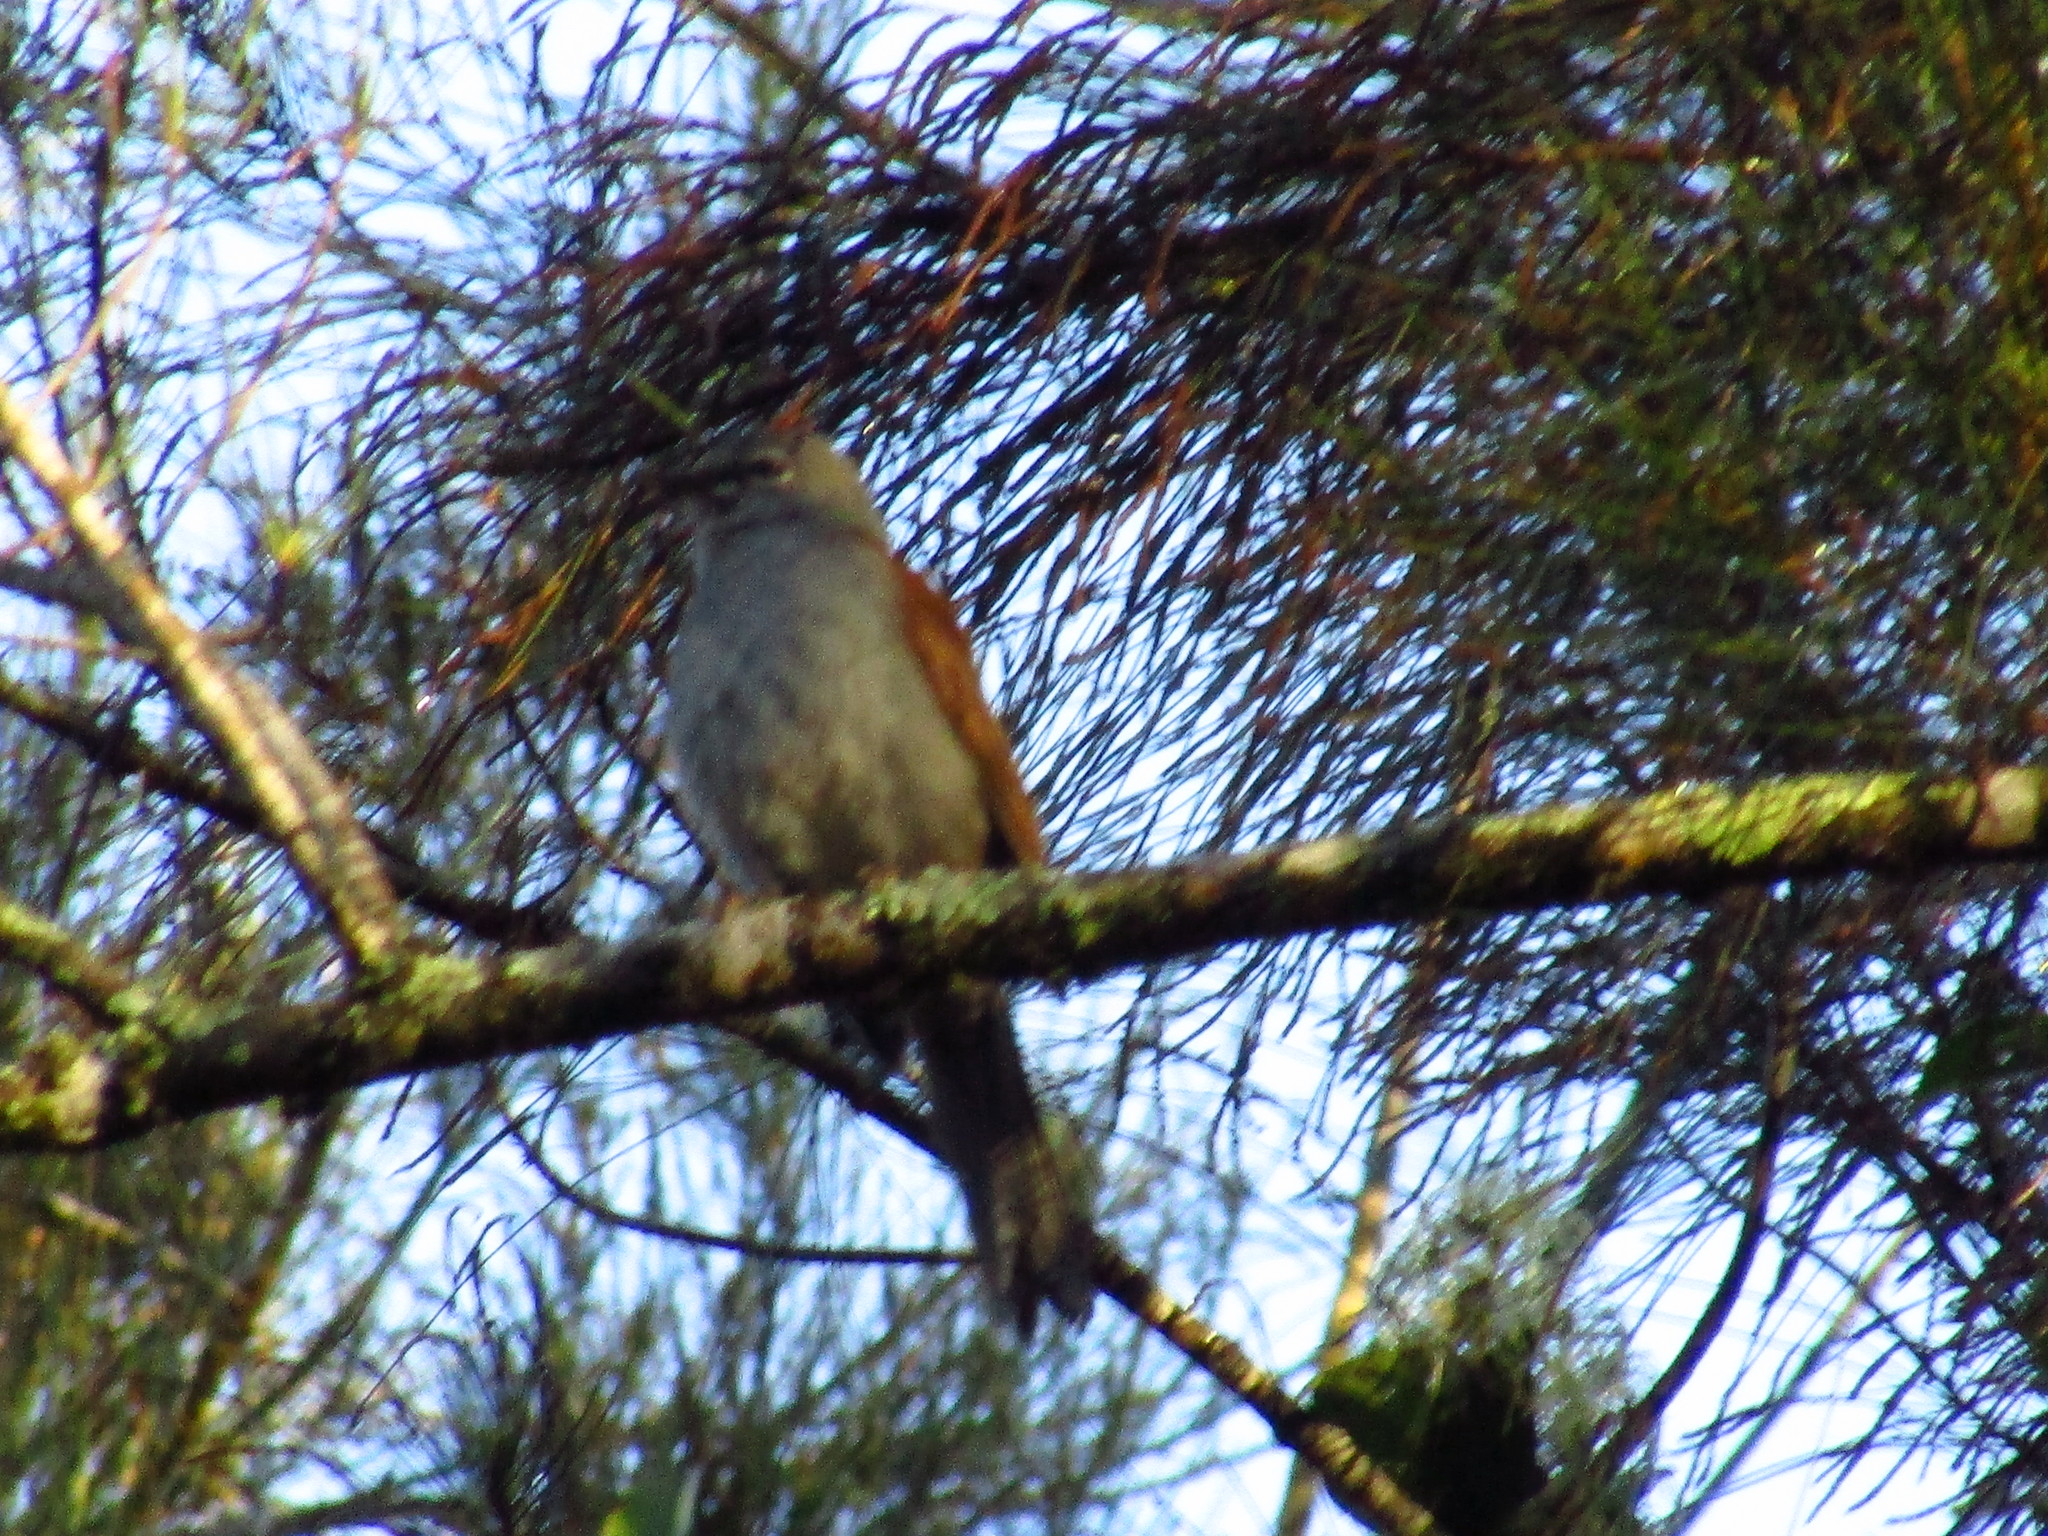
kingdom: Animalia
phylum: Chordata
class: Aves
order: Passeriformes
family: Turdidae
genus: Myadestes
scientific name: Myadestes occidentalis
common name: Brown-backed solitaire
